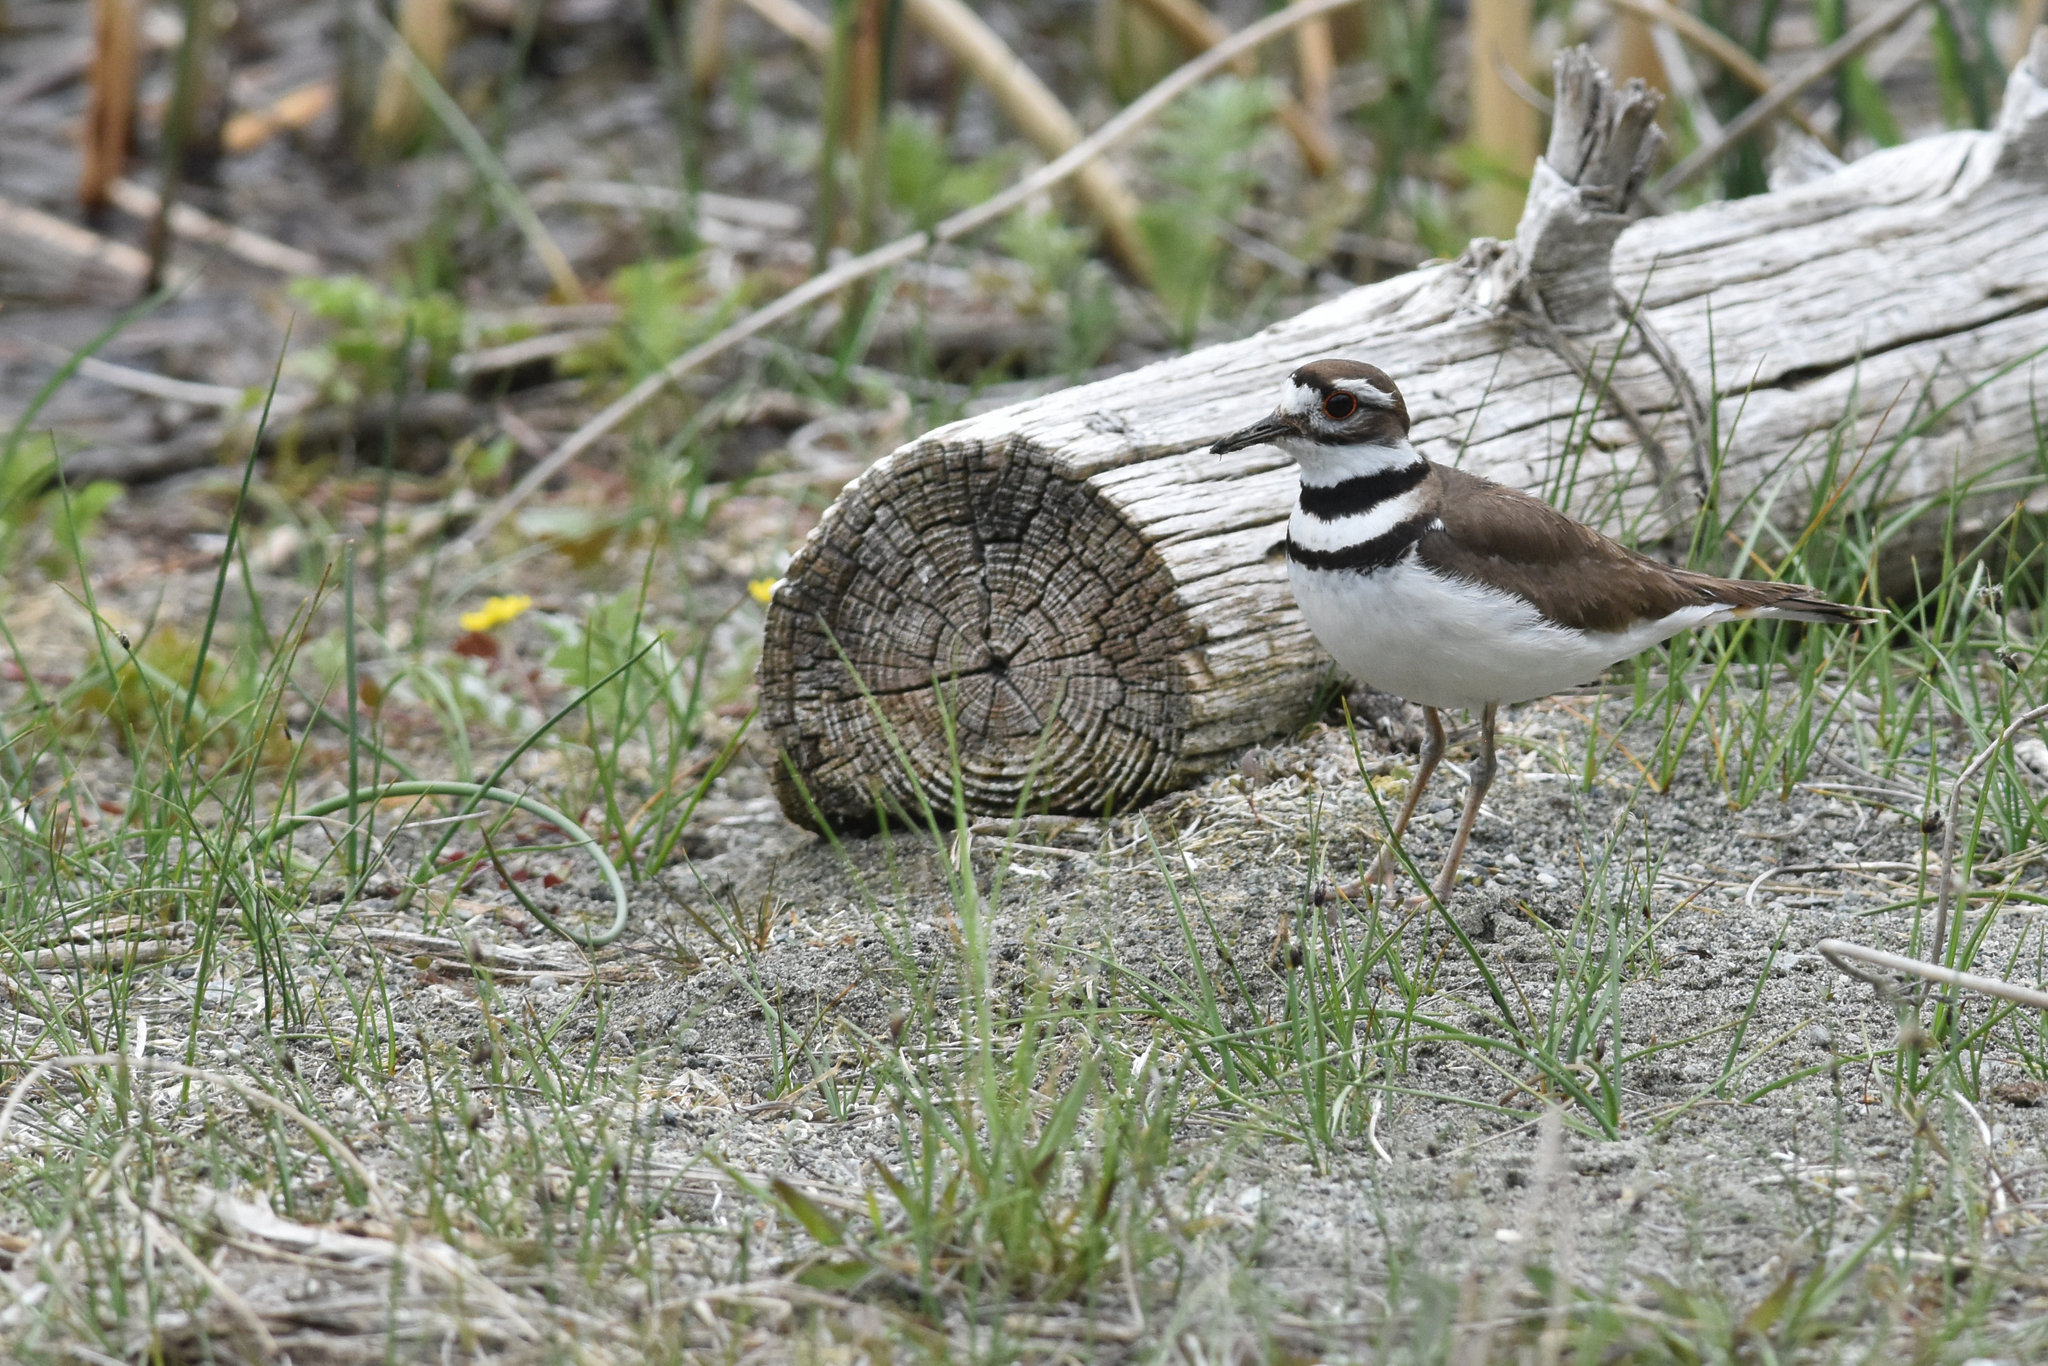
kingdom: Animalia
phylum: Chordata
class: Aves
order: Charadriiformes
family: Charadriidae
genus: Charadrius
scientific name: Charadrius vociferus
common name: Killdeer
